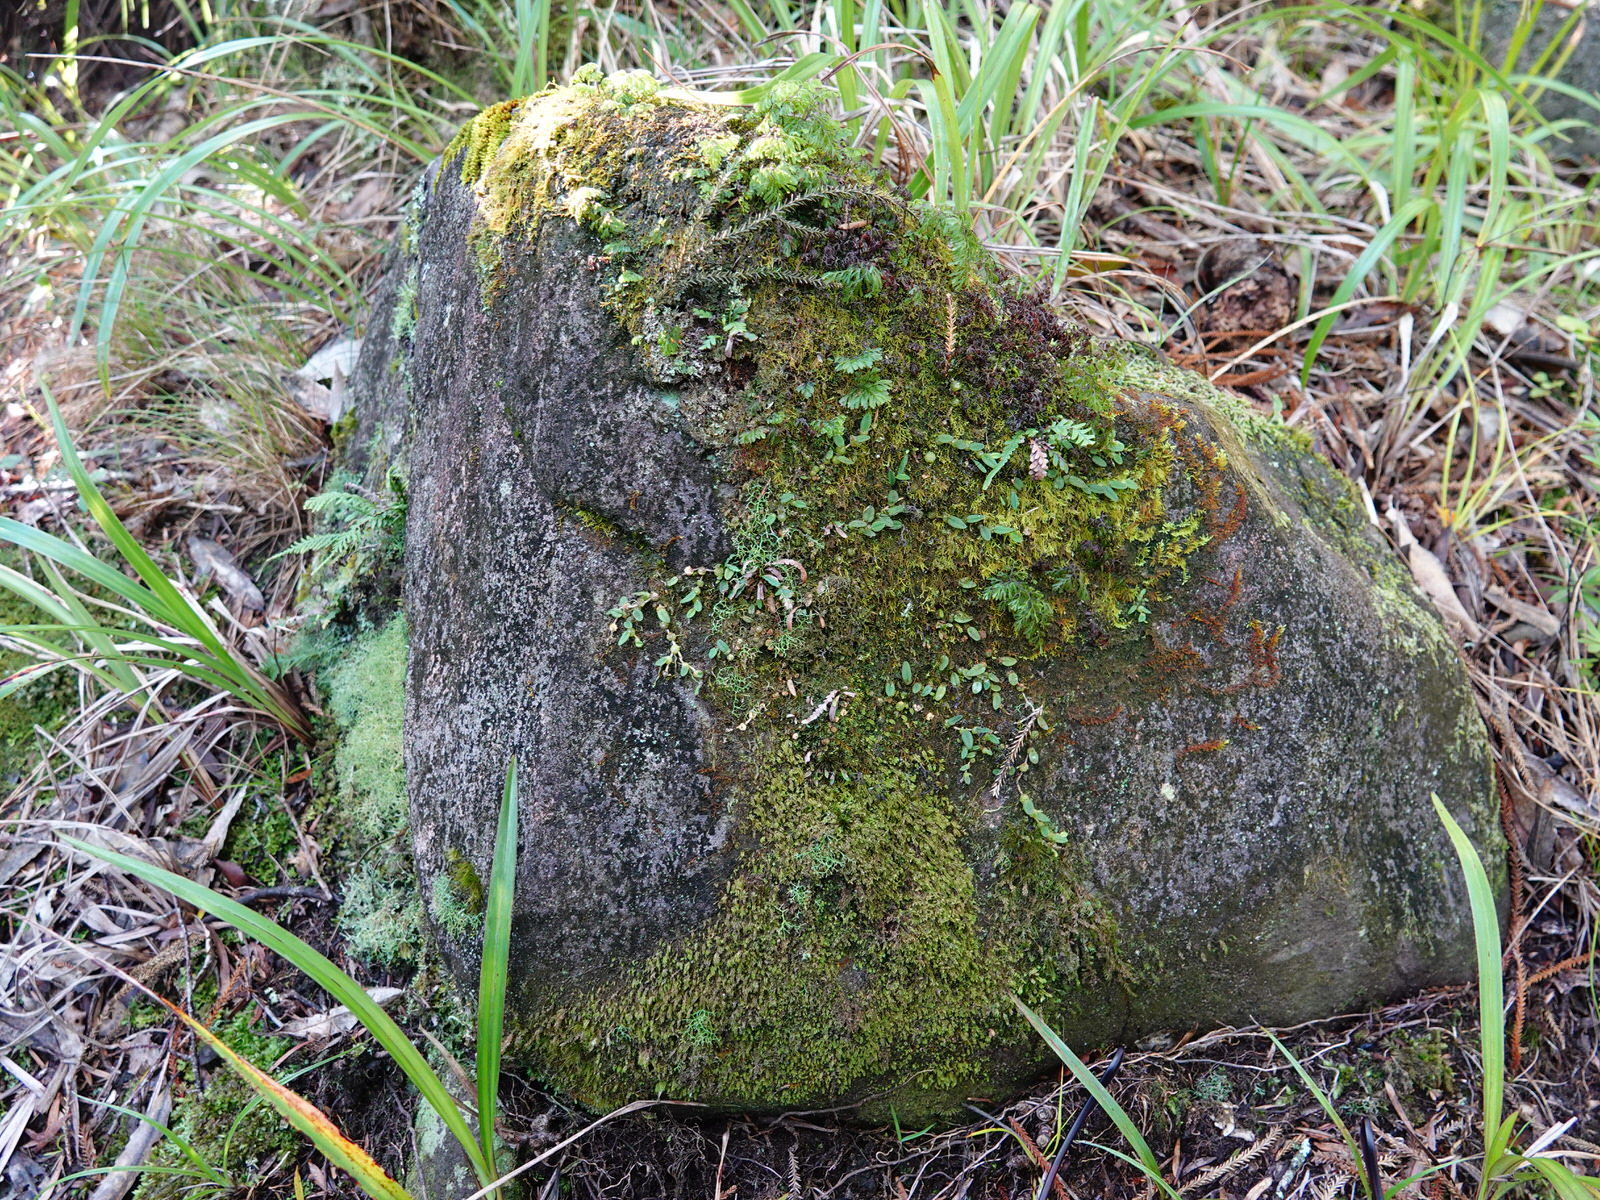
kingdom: Plantae
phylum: Tracheophyta
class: Liliopsida
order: Asparagales
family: Orchidaceae
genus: Bulbophyllum
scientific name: Bulbophyllum pygmaeum
